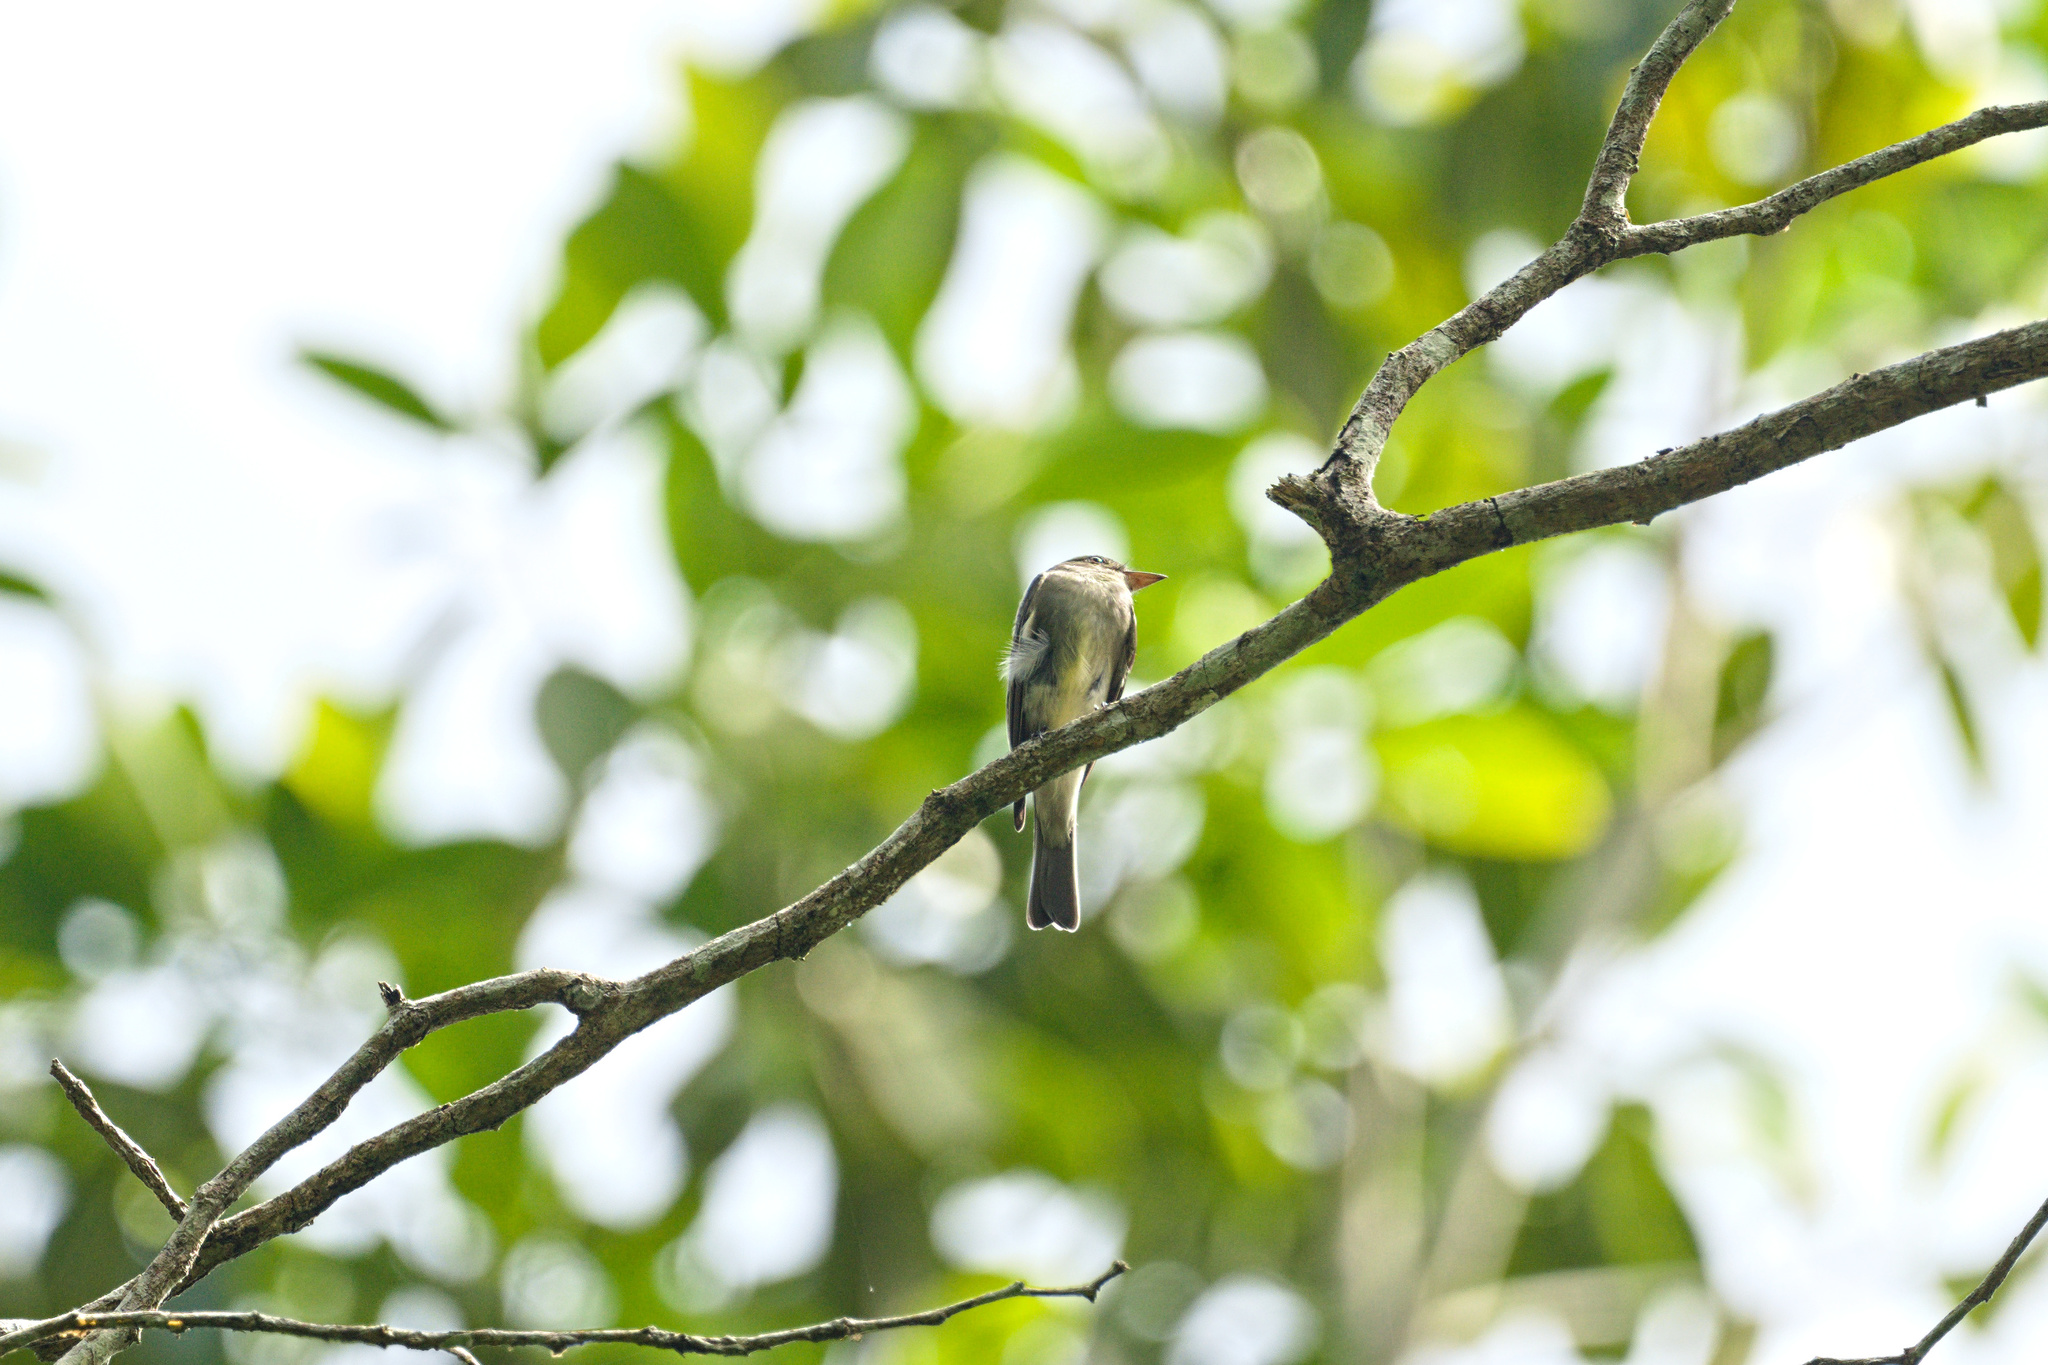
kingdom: Animalia
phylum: Chordata
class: Aves
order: Passeriformes
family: Tyrannidae
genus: Contopus
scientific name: Contopus virens
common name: Eastern wood-pewee
